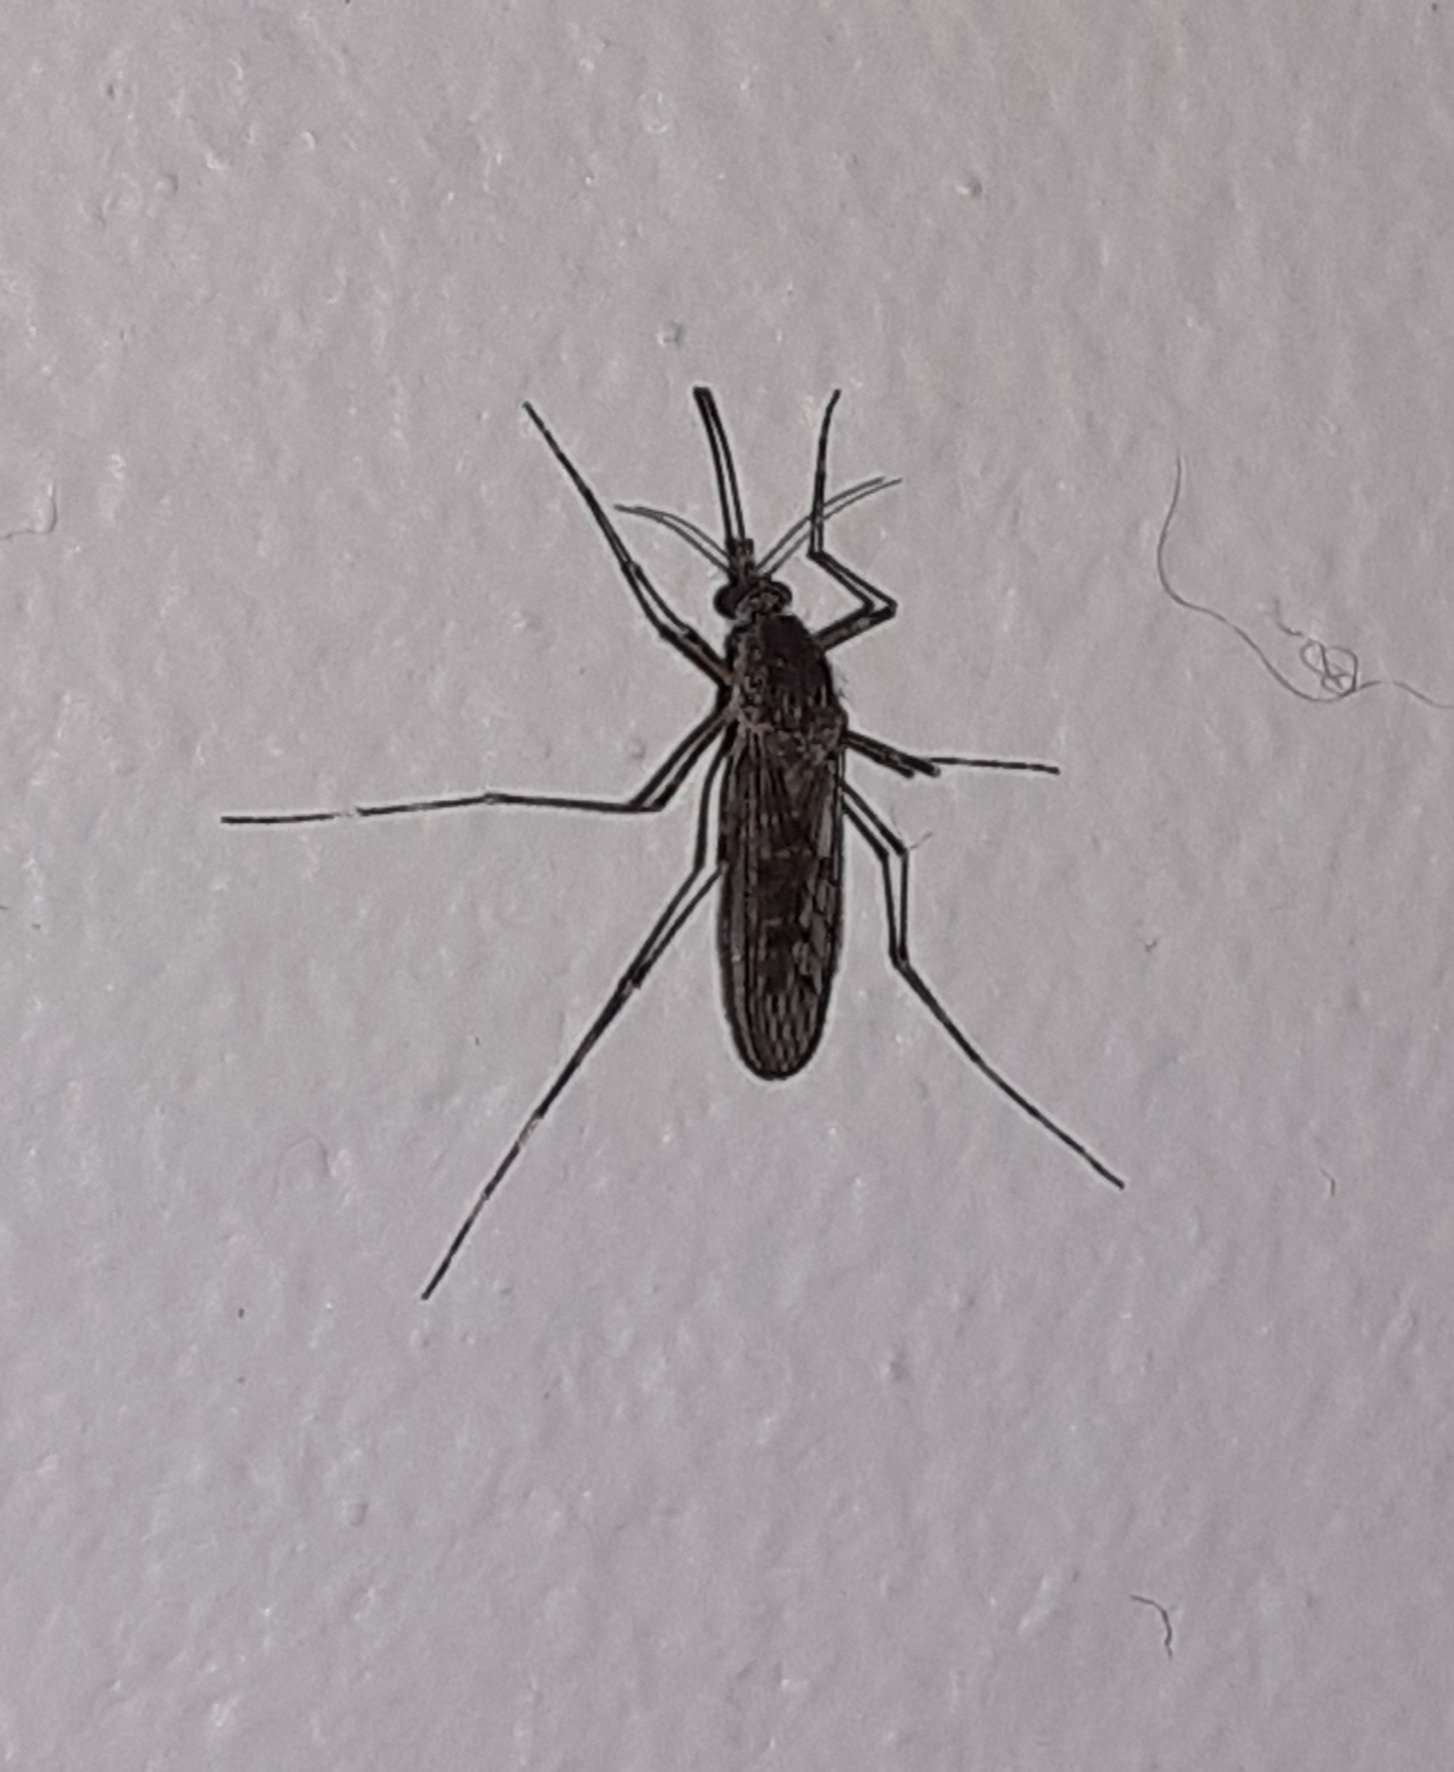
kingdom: Animalia
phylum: Arthropoda
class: Insecta
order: Diptera
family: Culicidae
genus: Culiseta
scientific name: Culiseta annulata
